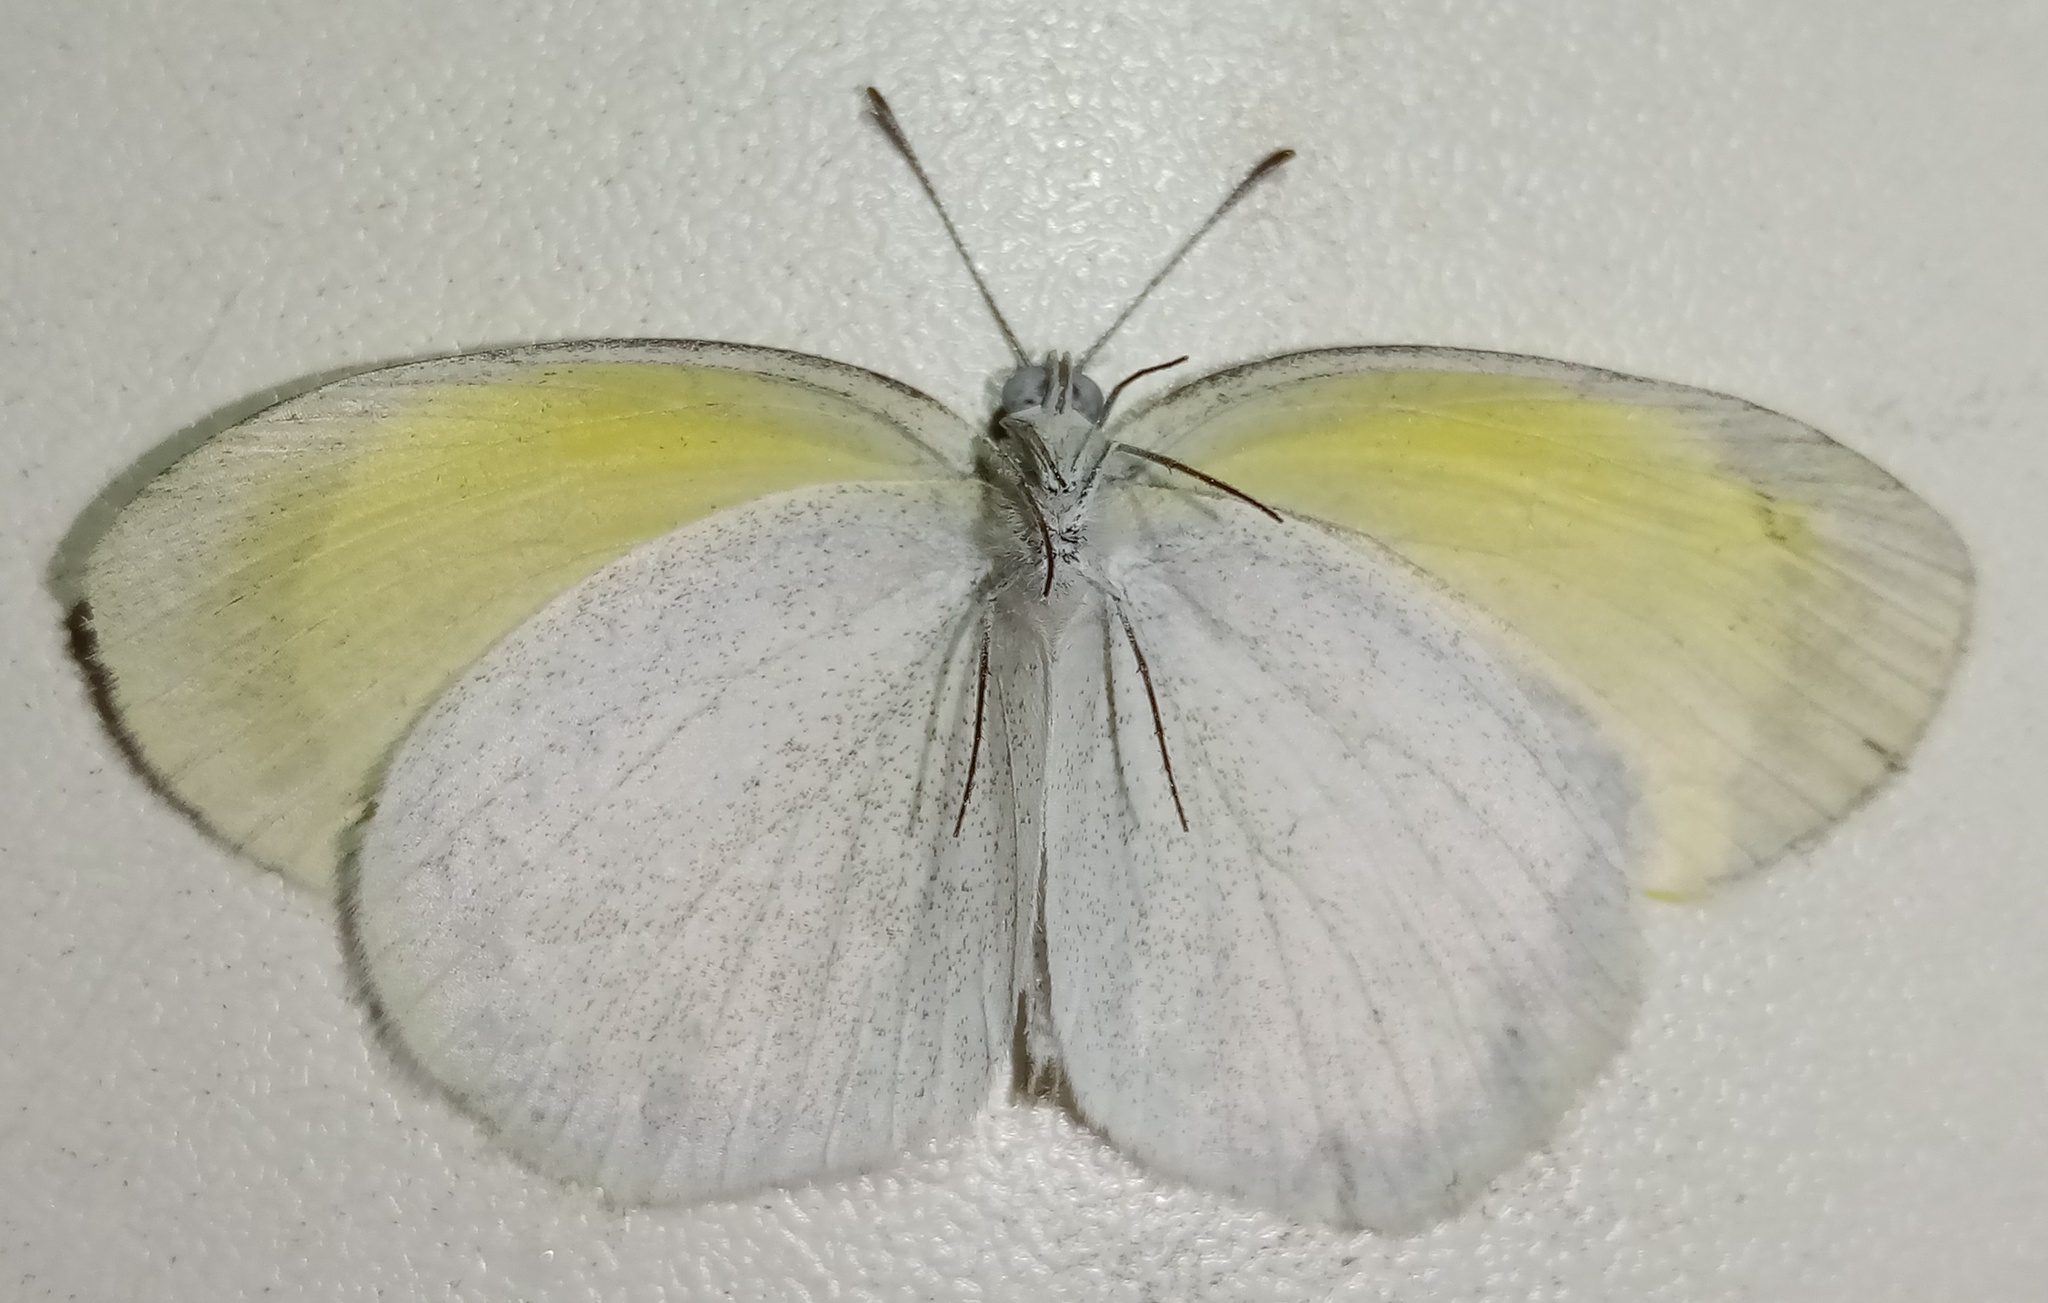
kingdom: Animalia
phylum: Arthropoda
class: Insecta
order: Lepidoptera
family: Pieridae
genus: Eurema
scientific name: Eurema daira
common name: Barred sulphur
